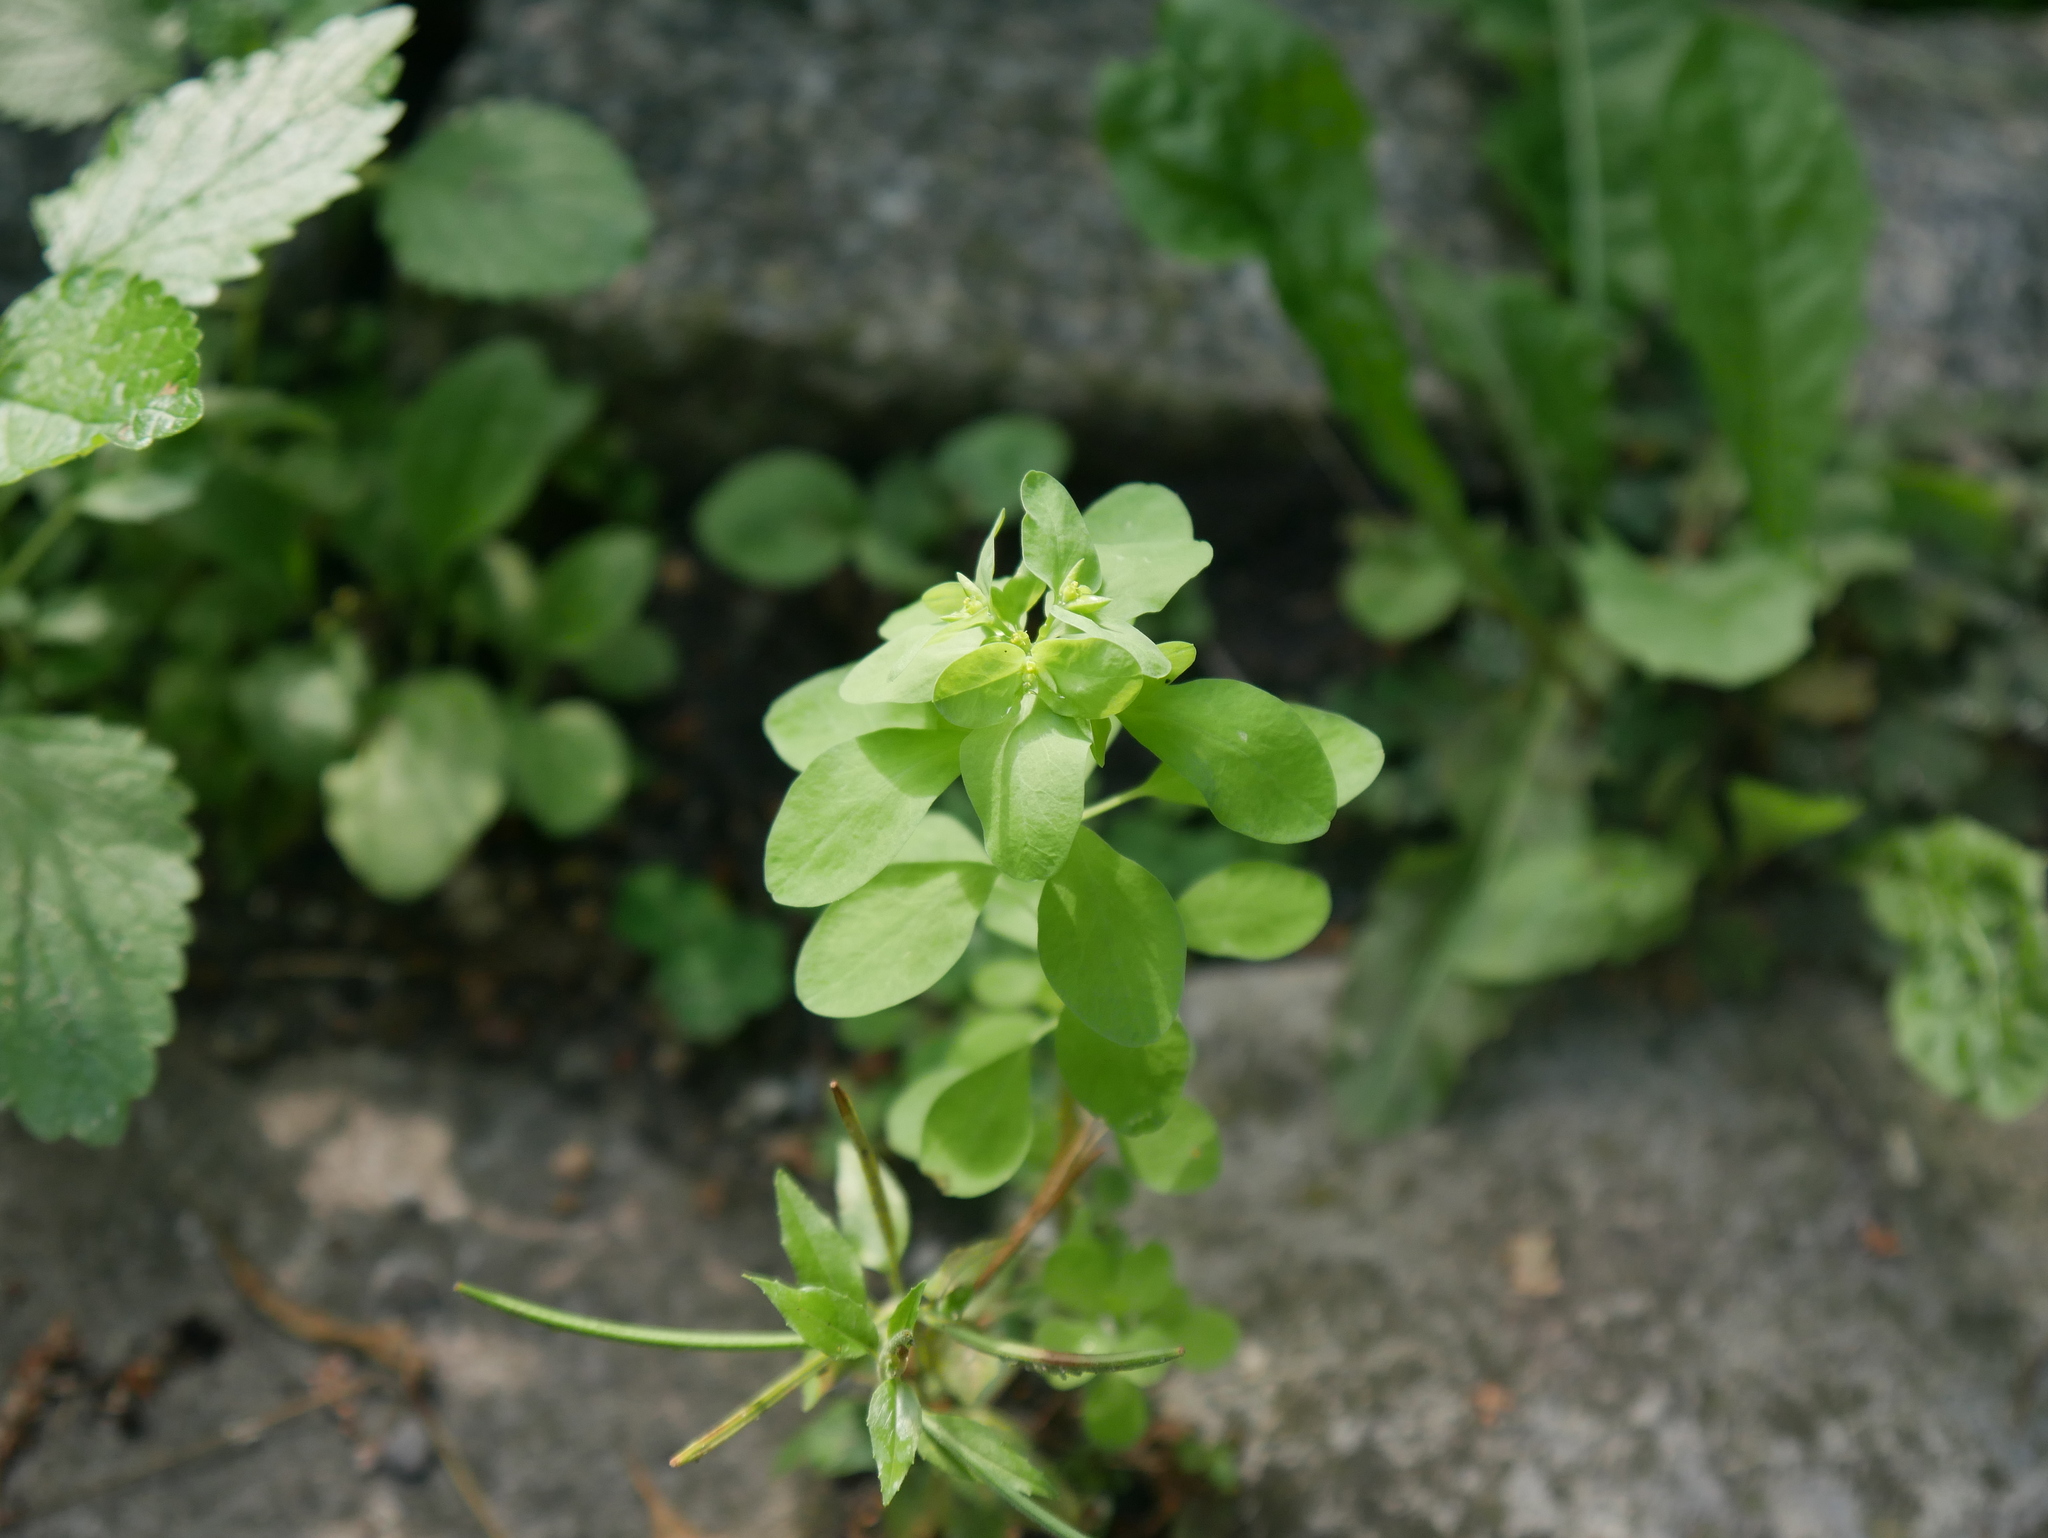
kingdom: Plantae
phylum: Tracheophyta
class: Magnoliopsida
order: Malpighiales
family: Euphorbiaceae
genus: Euphorbia
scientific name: Euphorbia peplus
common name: Petty spurge
